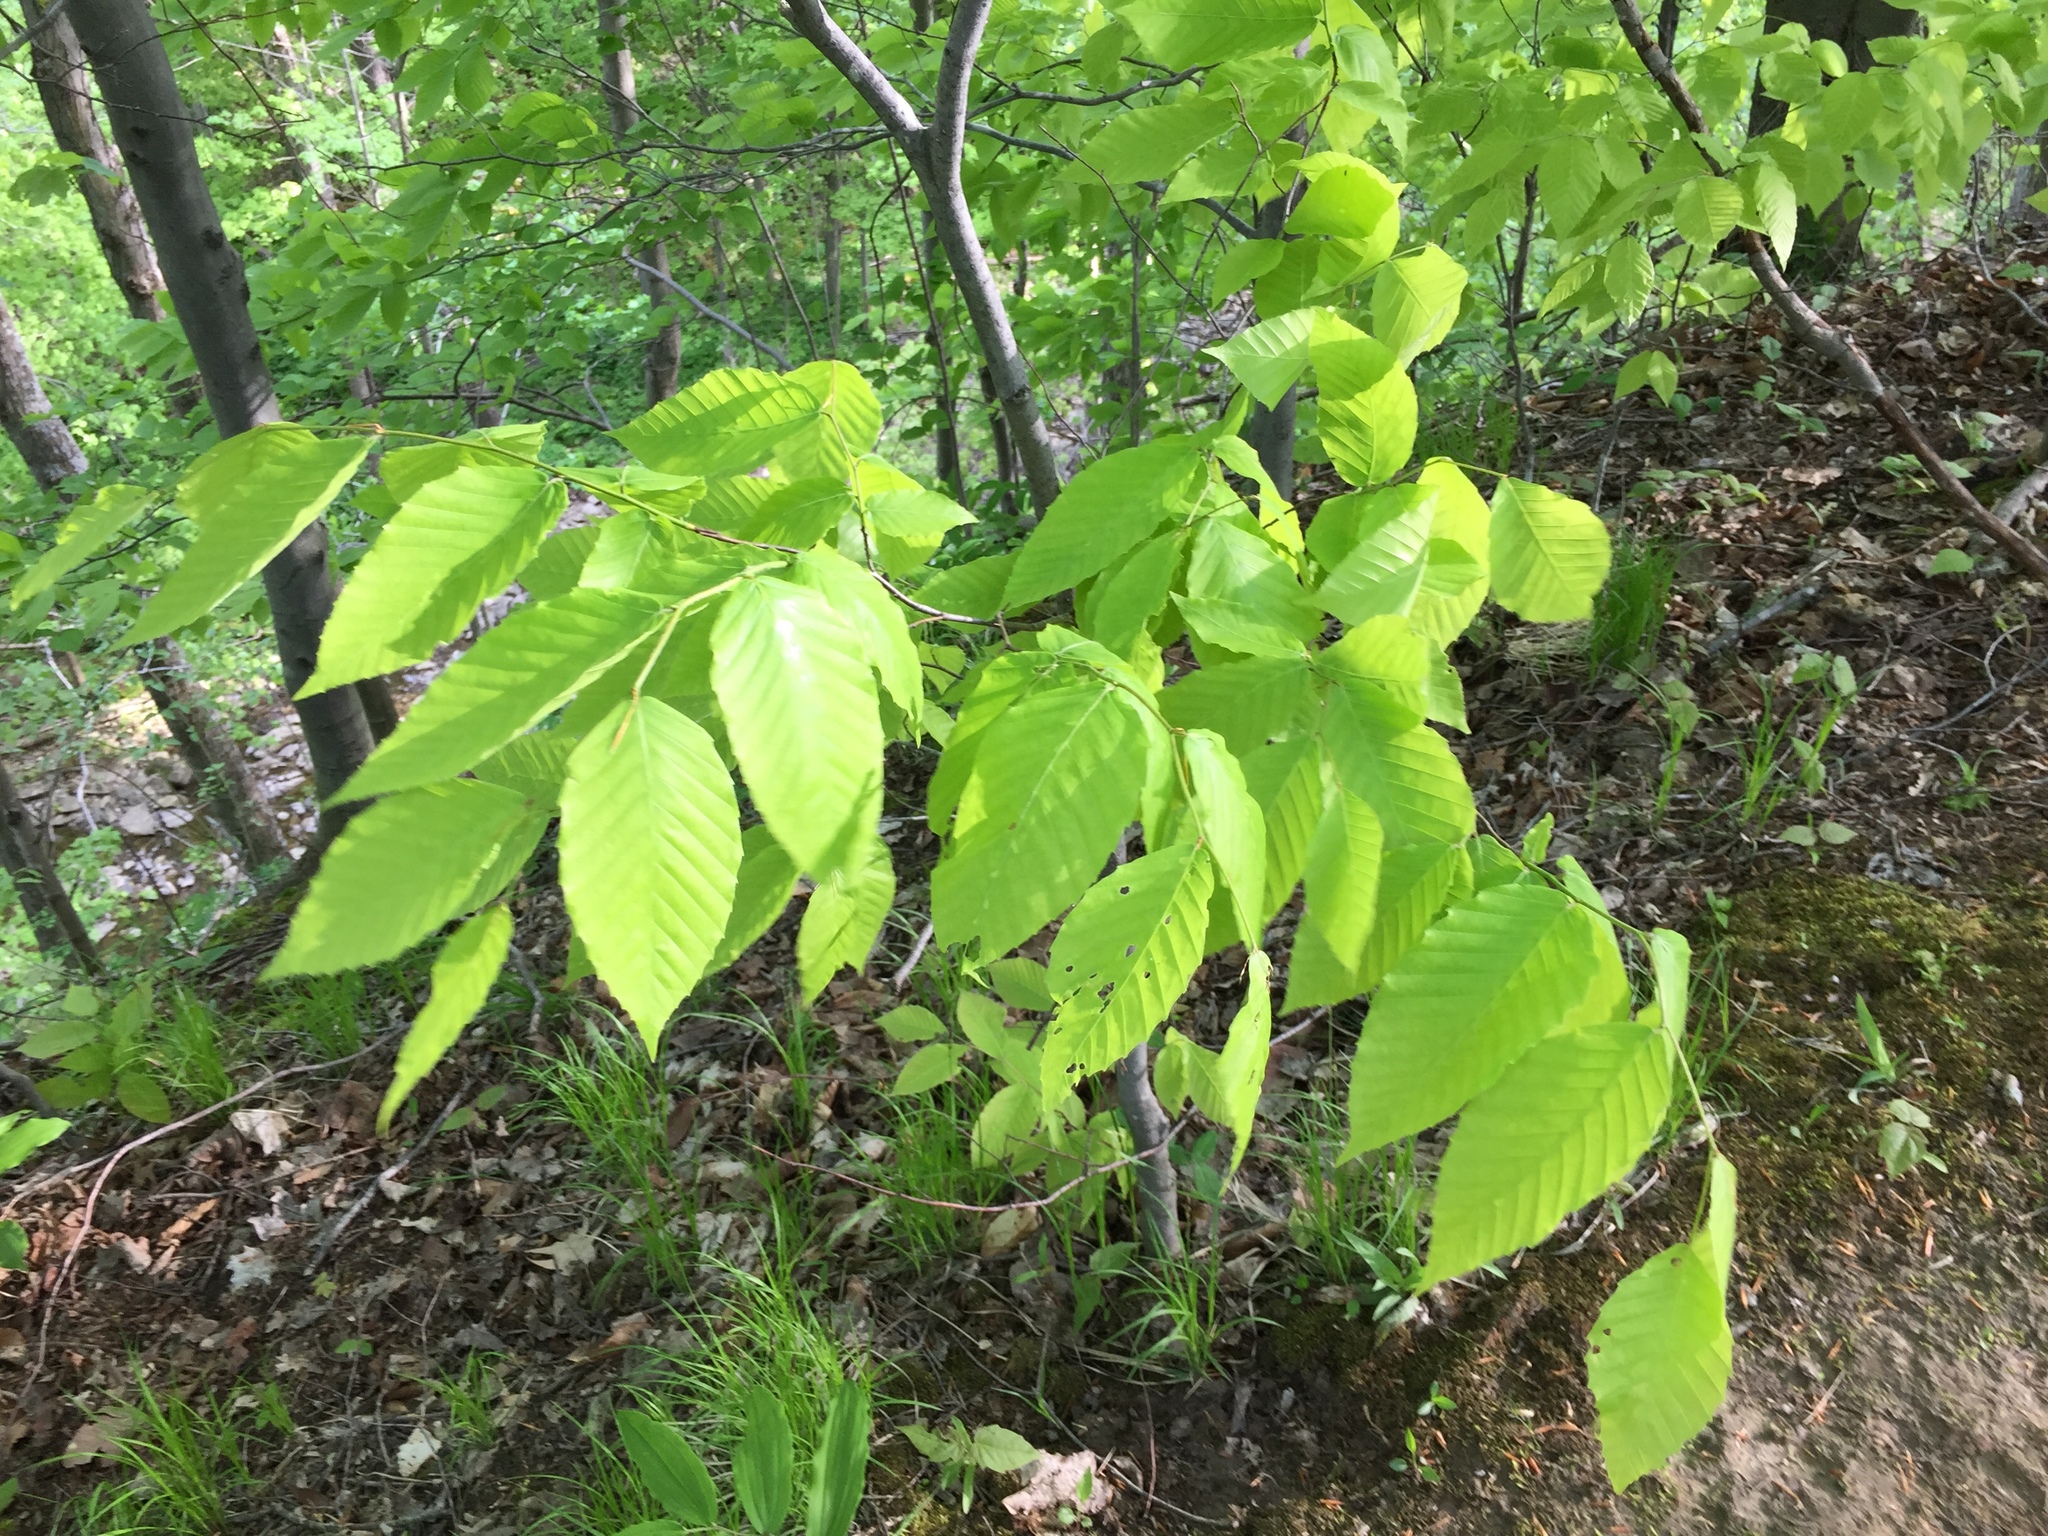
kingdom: Plantae
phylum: Tracheophyta
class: Magnoliopsida
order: Fagales
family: Fagaceae
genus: Fagus
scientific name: Fagus grandifolia
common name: American beech
